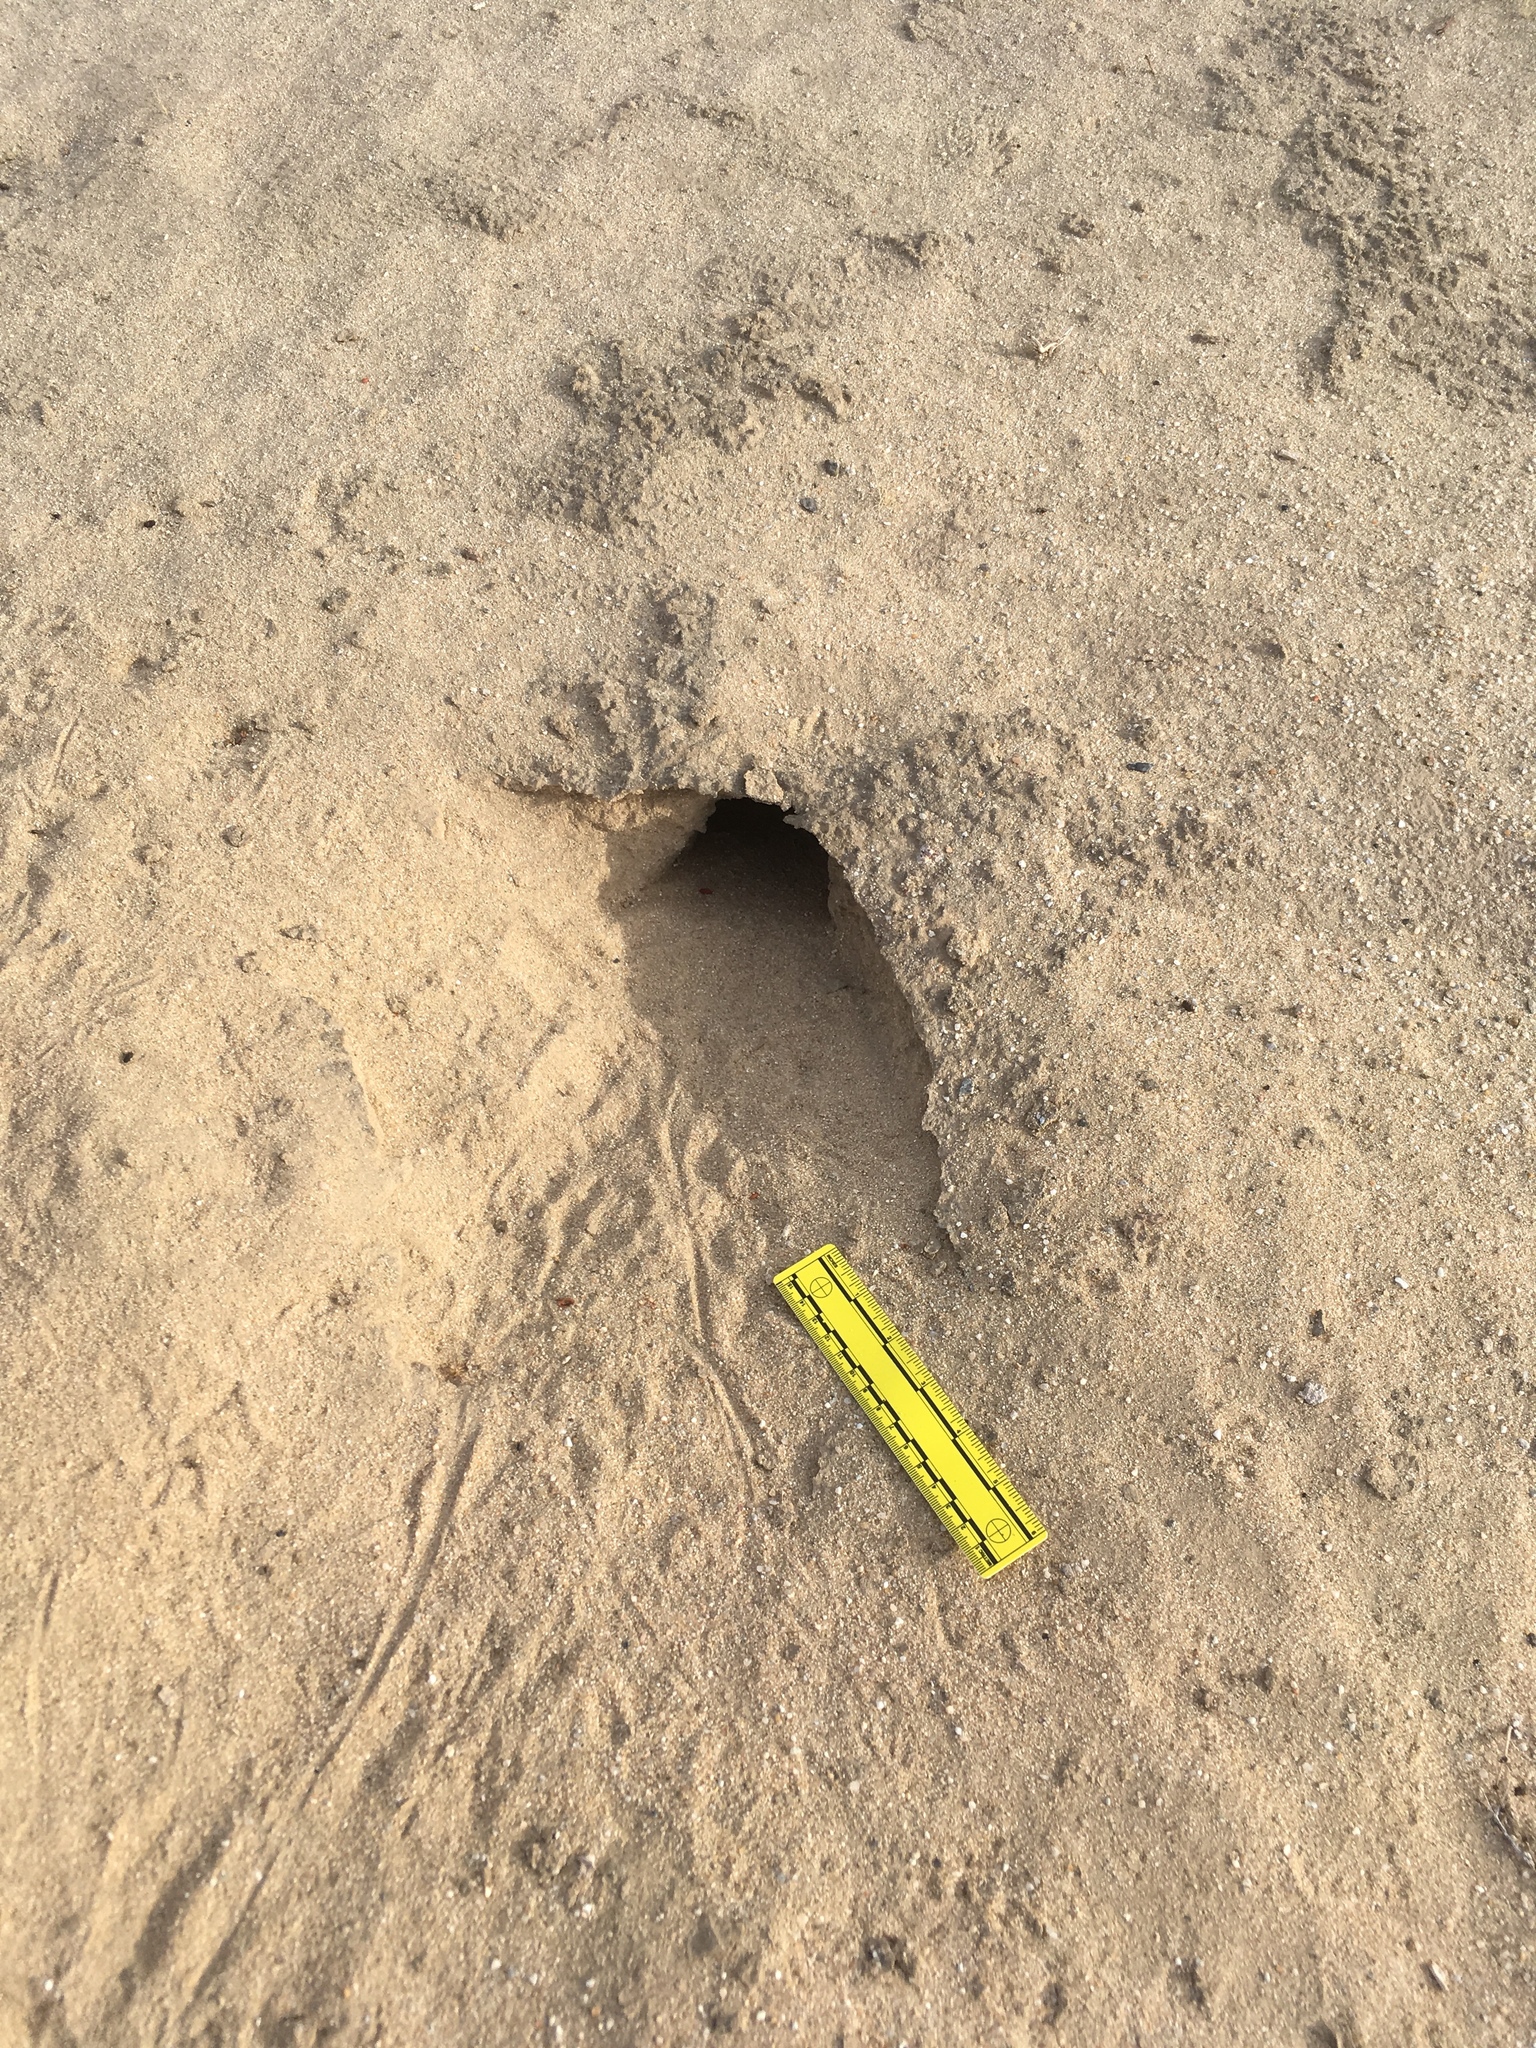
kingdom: Animalia
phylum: Chordata
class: Mammalia
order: Rodentia
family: Heteromyidae
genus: Dipodomys
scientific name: Dipodomys deserti
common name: Desert kangaroo rat
